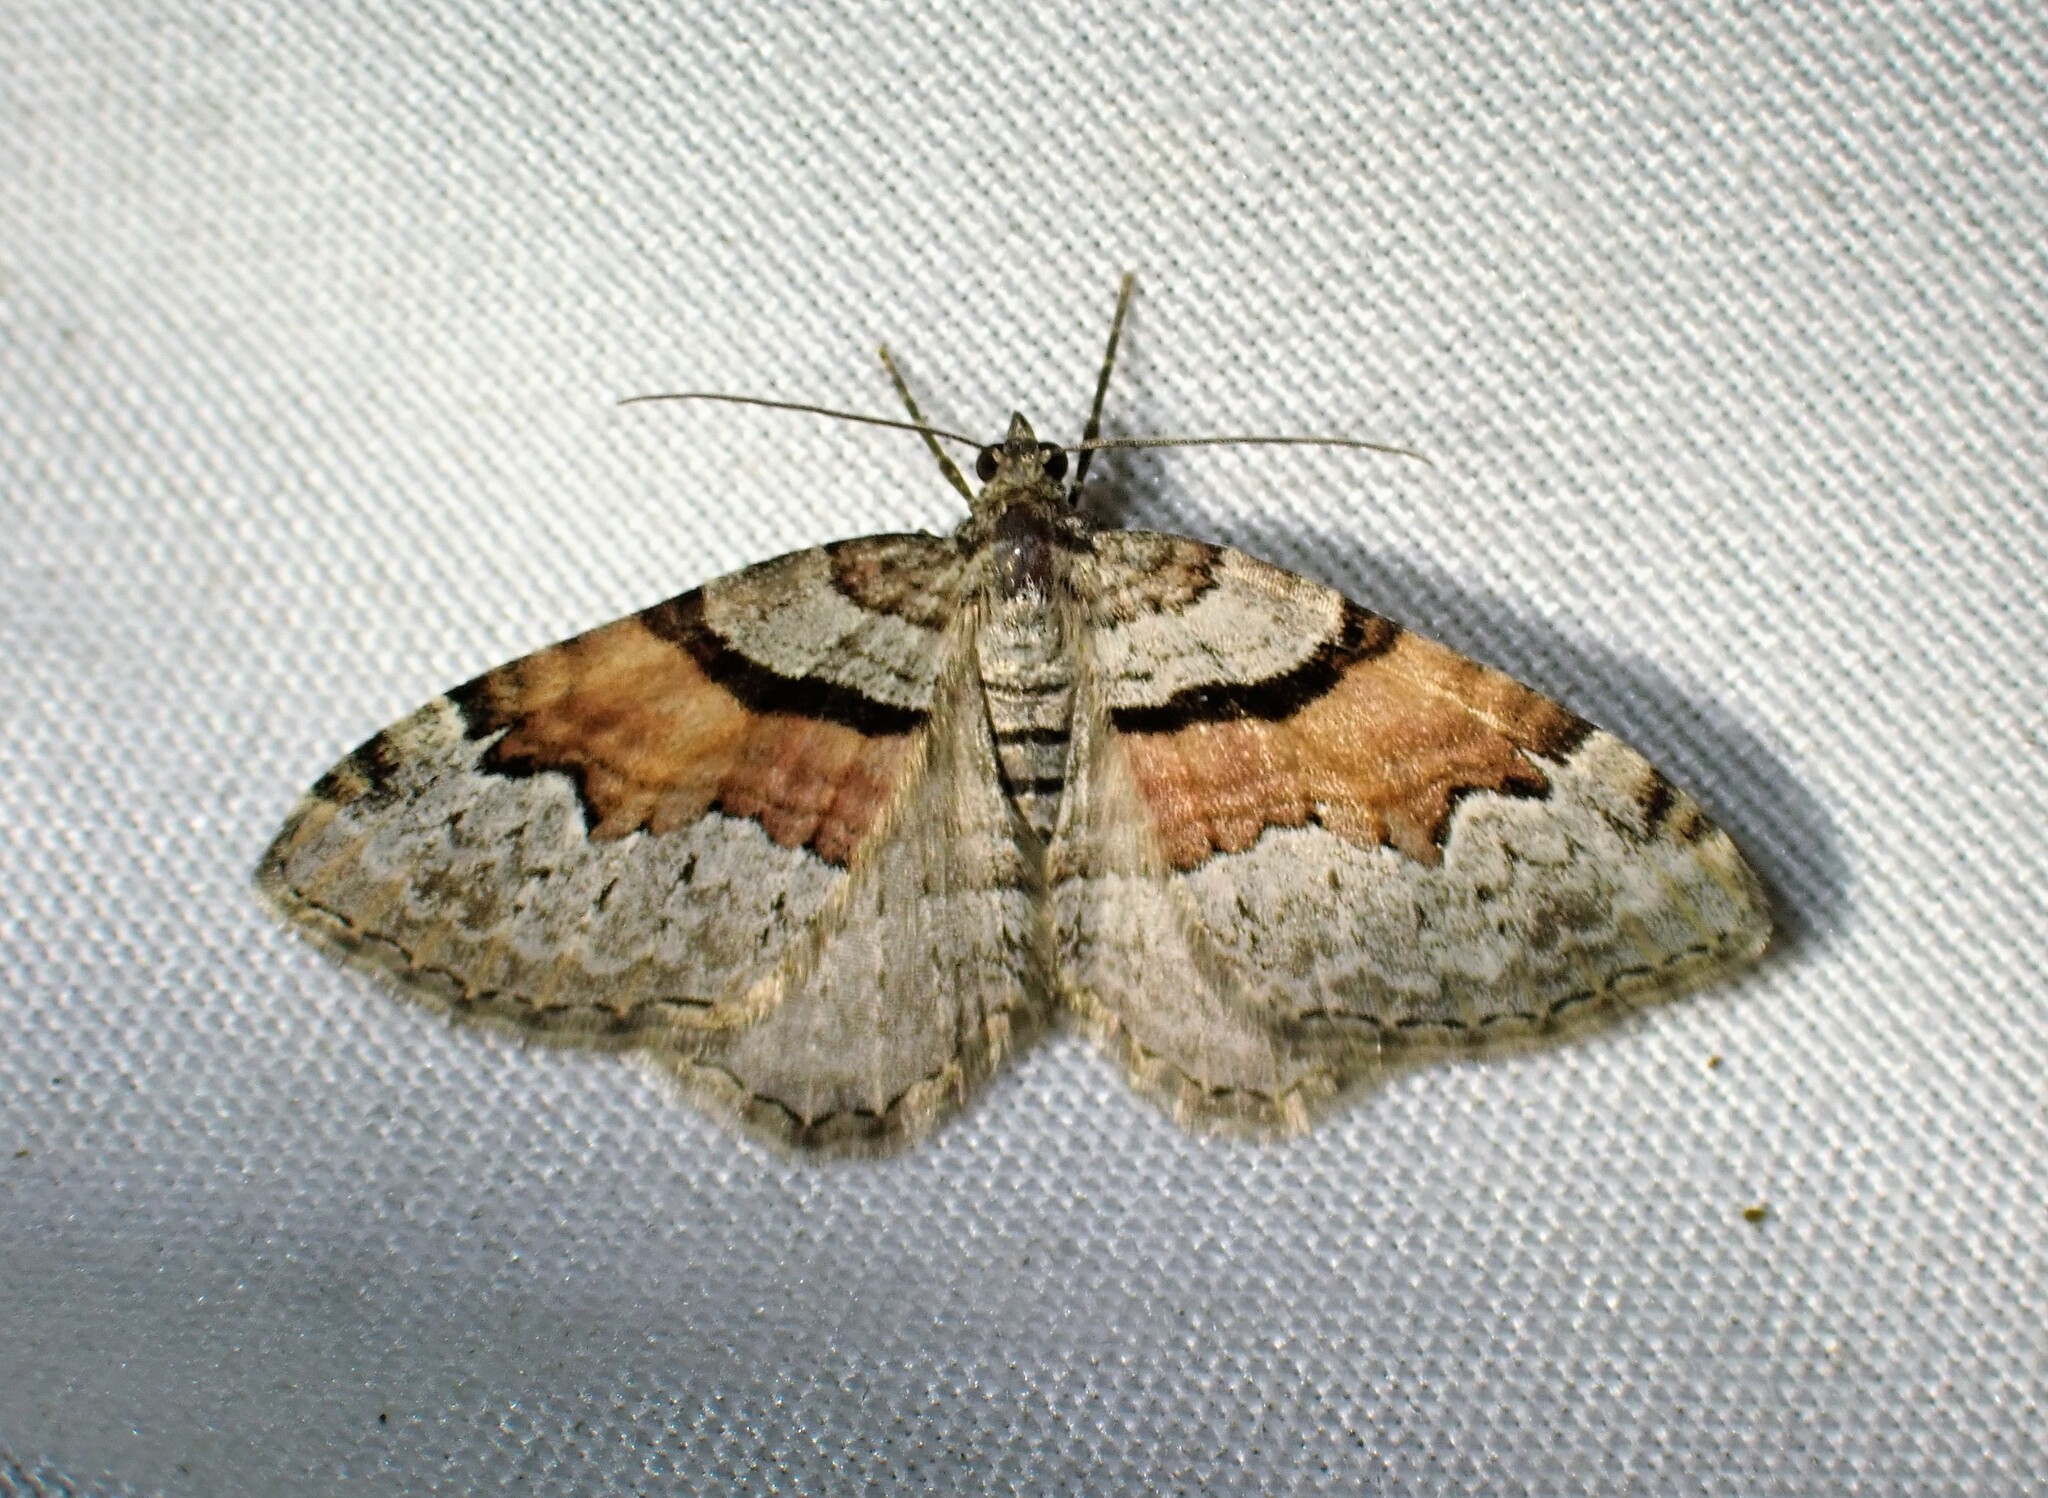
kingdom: Animalia
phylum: Arthropoda
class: Insecta
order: Lepidoptera
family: Geometridae
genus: Xanthorhoe
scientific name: Xanthorhoe packardata
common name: Packard's carpet
